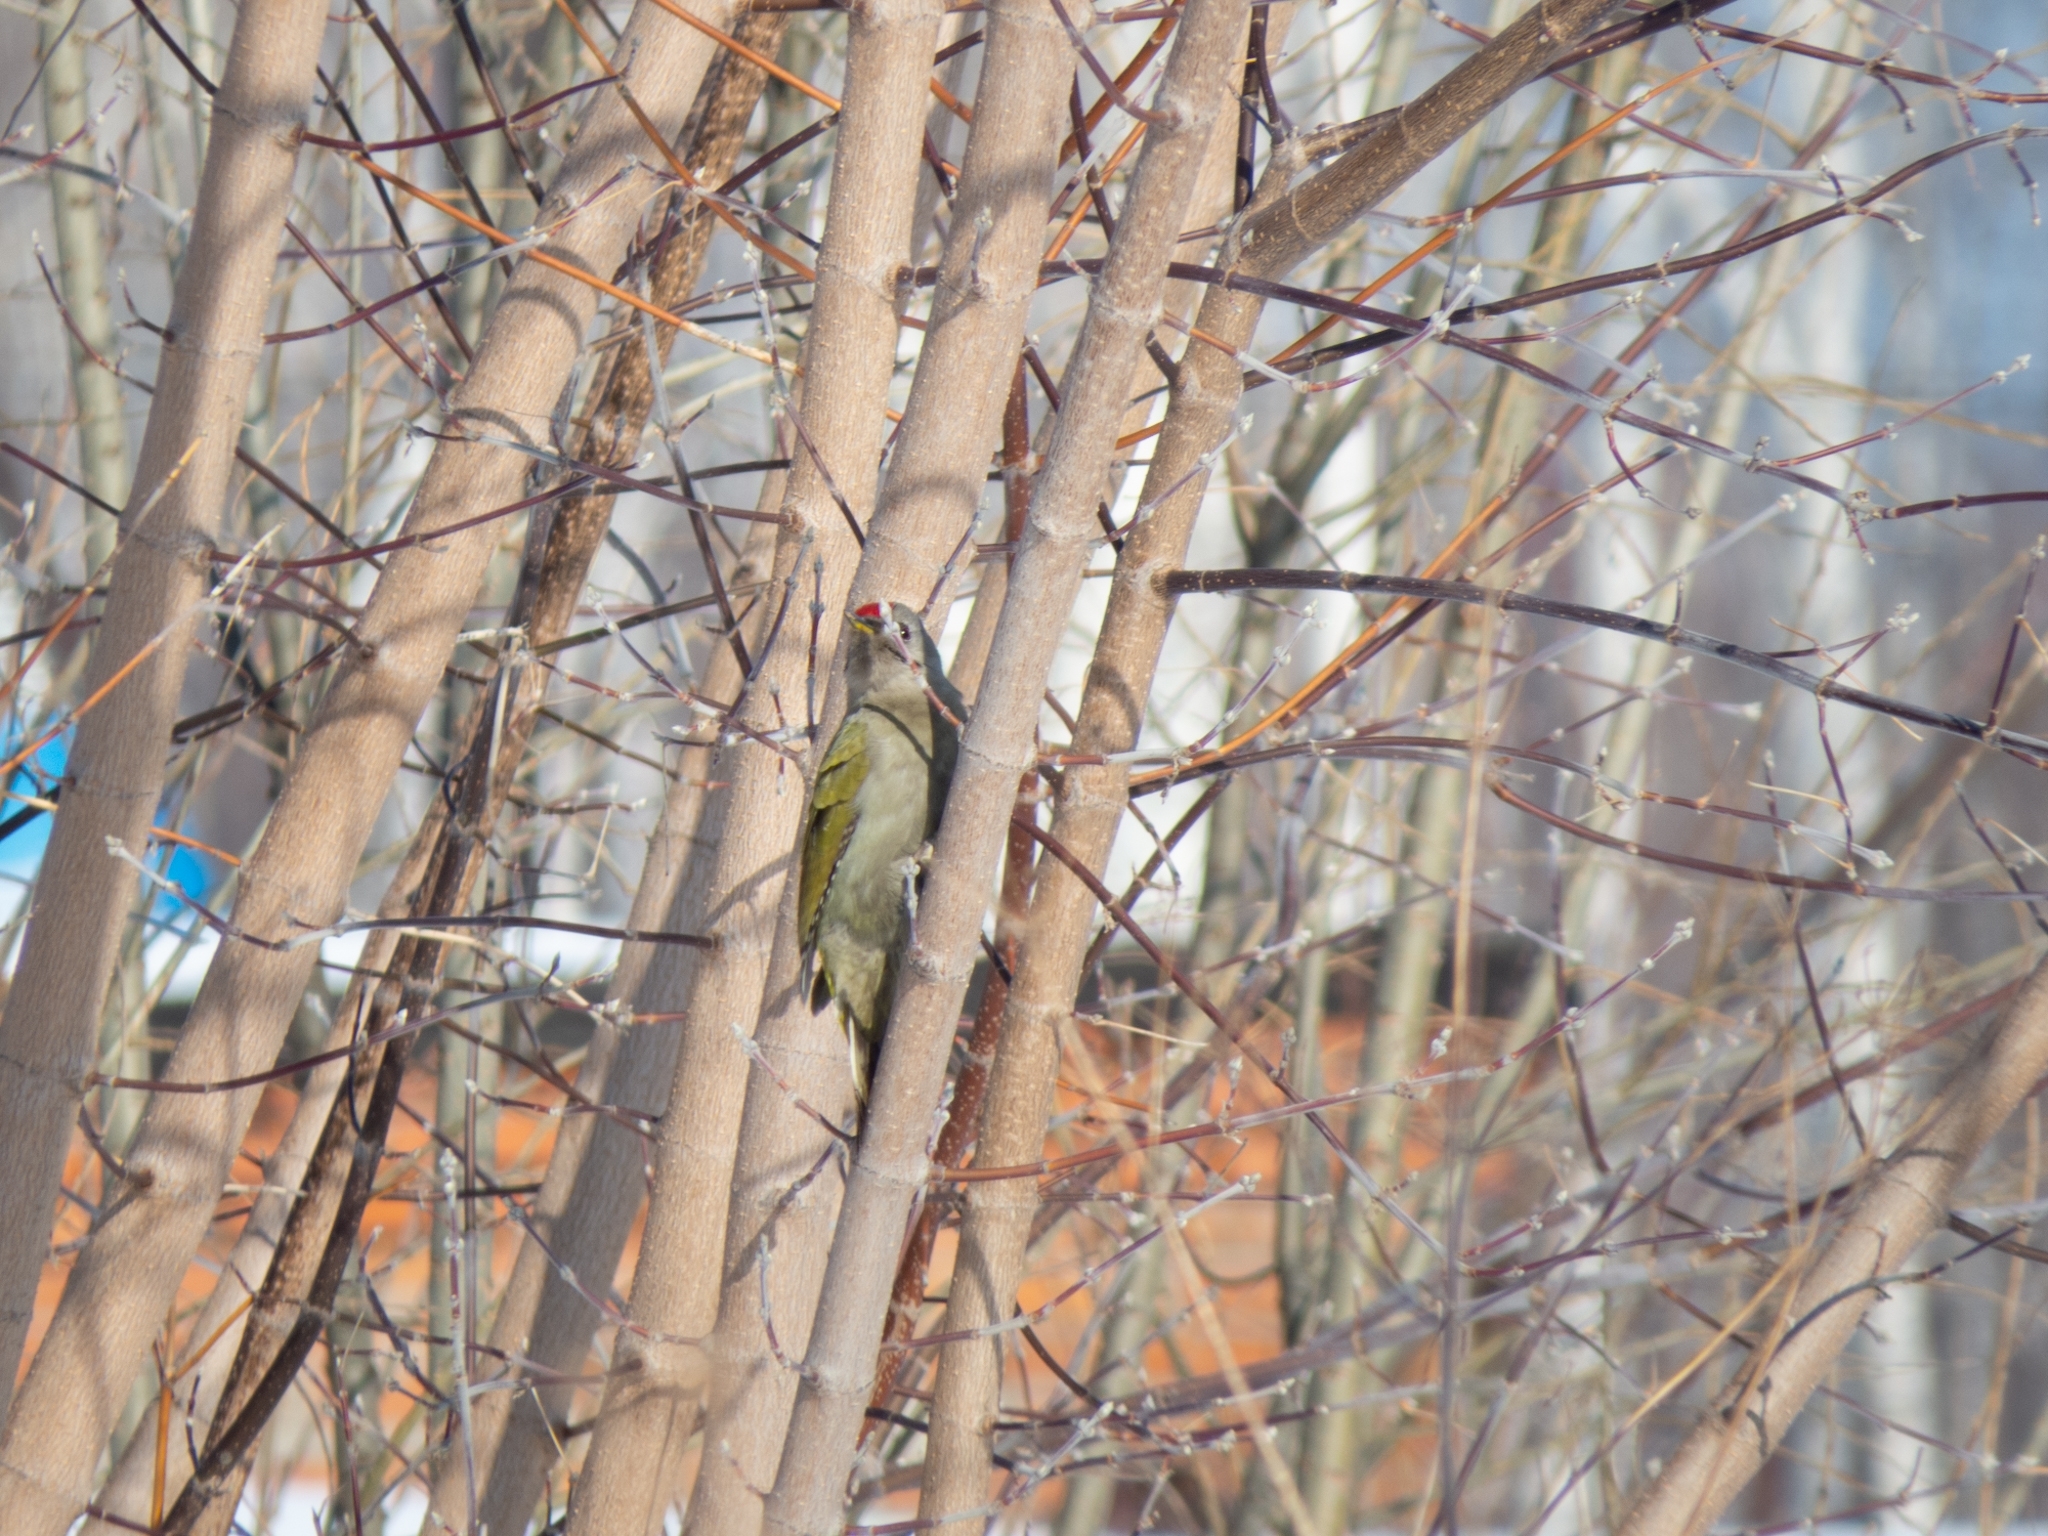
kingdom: Animalia
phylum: Chordata
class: Aves
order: Piciformes
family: Picidae
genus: Picus
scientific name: Picus canus
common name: Grey-headed woodpecker
